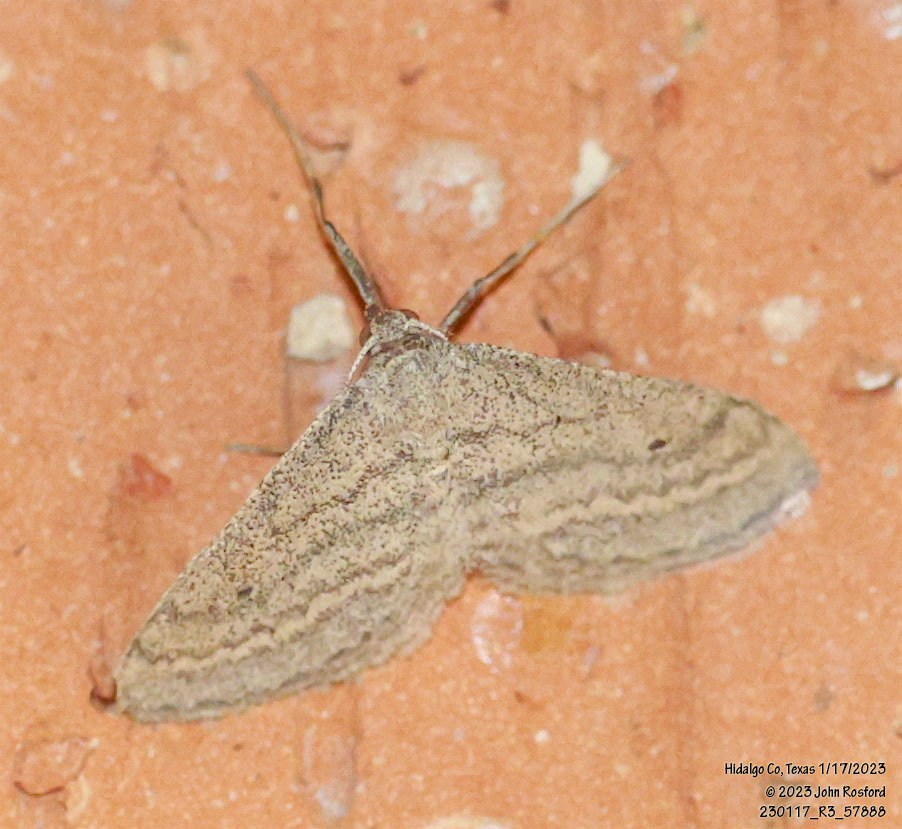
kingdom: Animalia
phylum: Arthropoda
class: Insecta
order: Lepidoptera
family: Geometridae
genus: Lobocleta
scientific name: Lobocleta plemyraria
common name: Straight-lined wave
